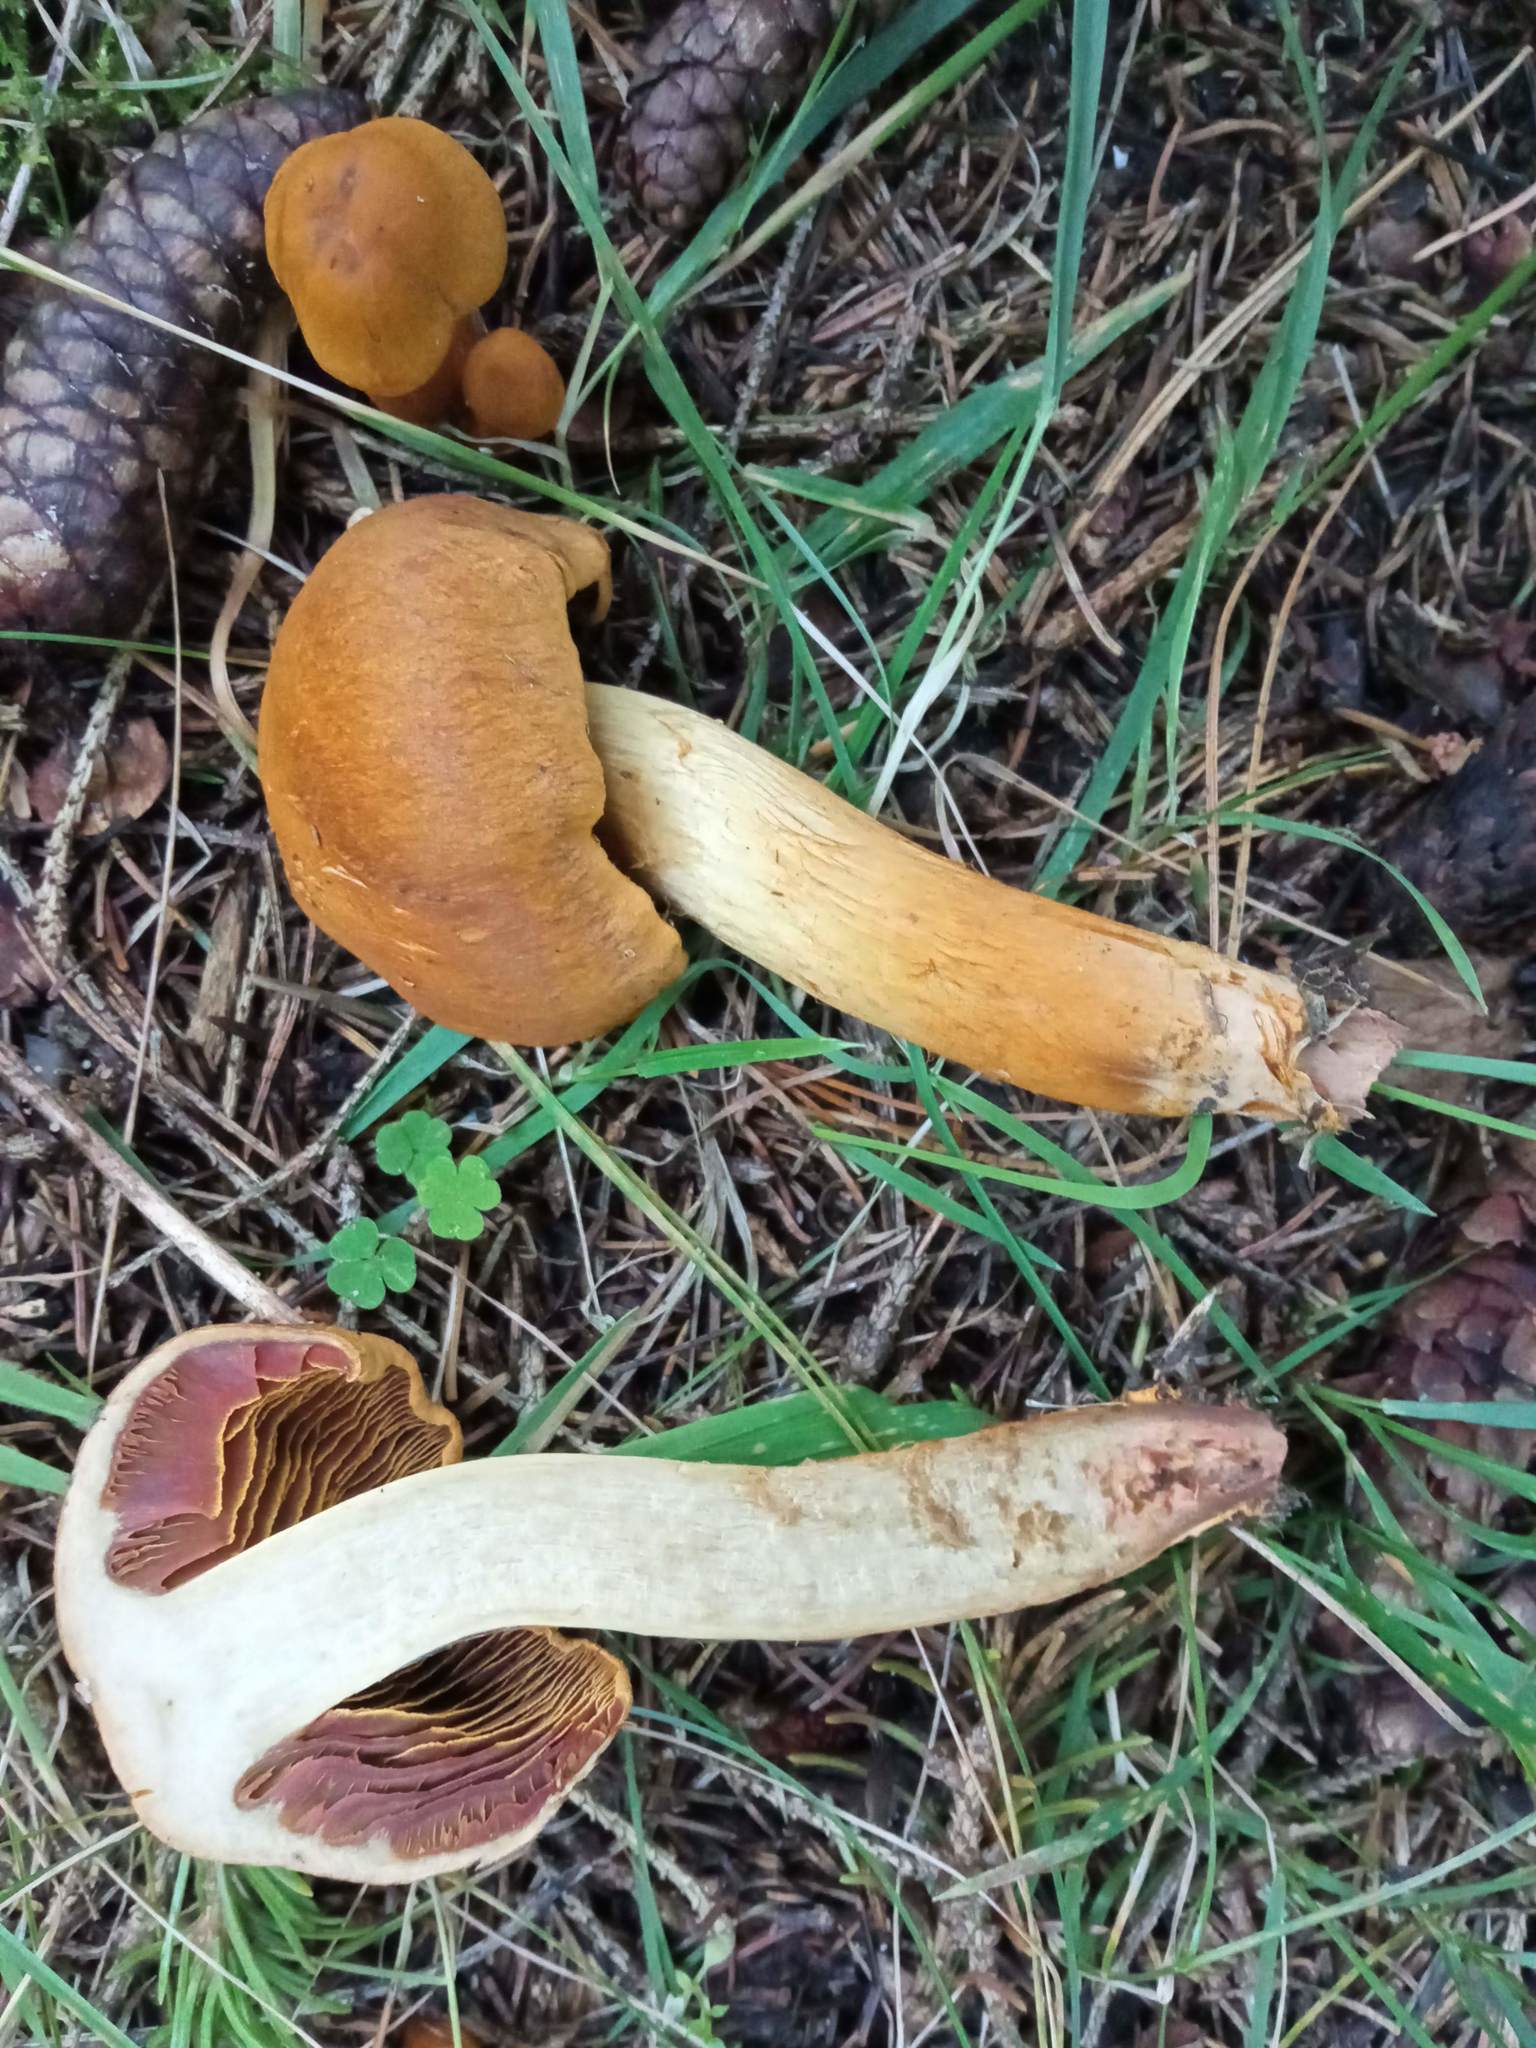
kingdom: Fungi
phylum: Basidiomycota
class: Agaricomycetes
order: Agaricales
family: Cortinariaceae
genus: Cortinarius
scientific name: Cortinarius semisanguineus
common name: Surprise webcap
